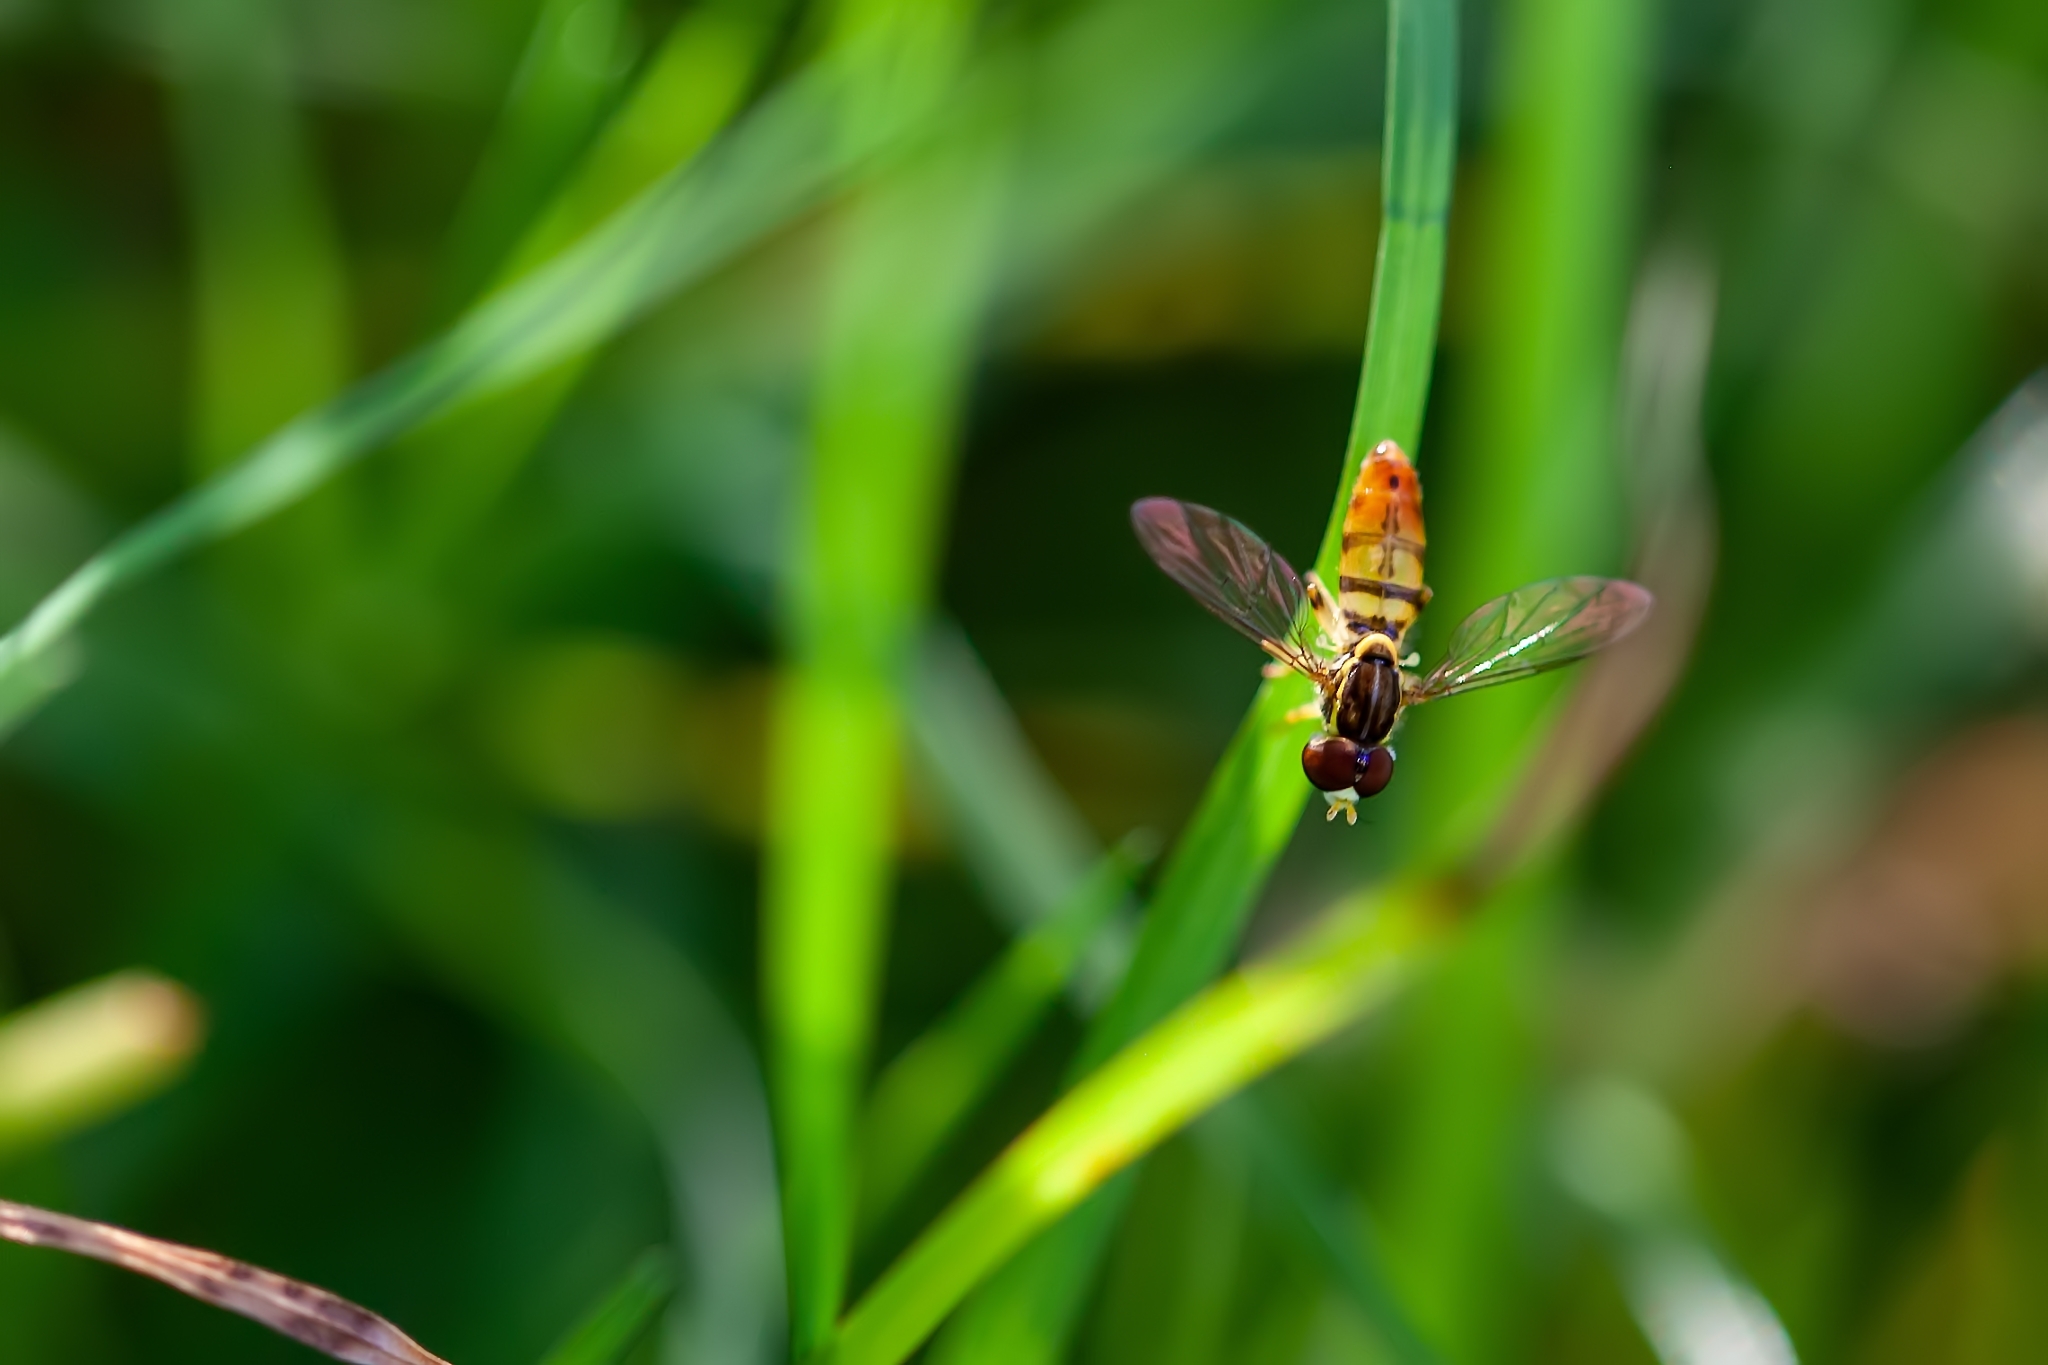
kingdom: Animalia
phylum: Arthropoda
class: Insecta
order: Diptera
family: Syrphidae
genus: Toxomerus
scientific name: Toxomerus floralis
